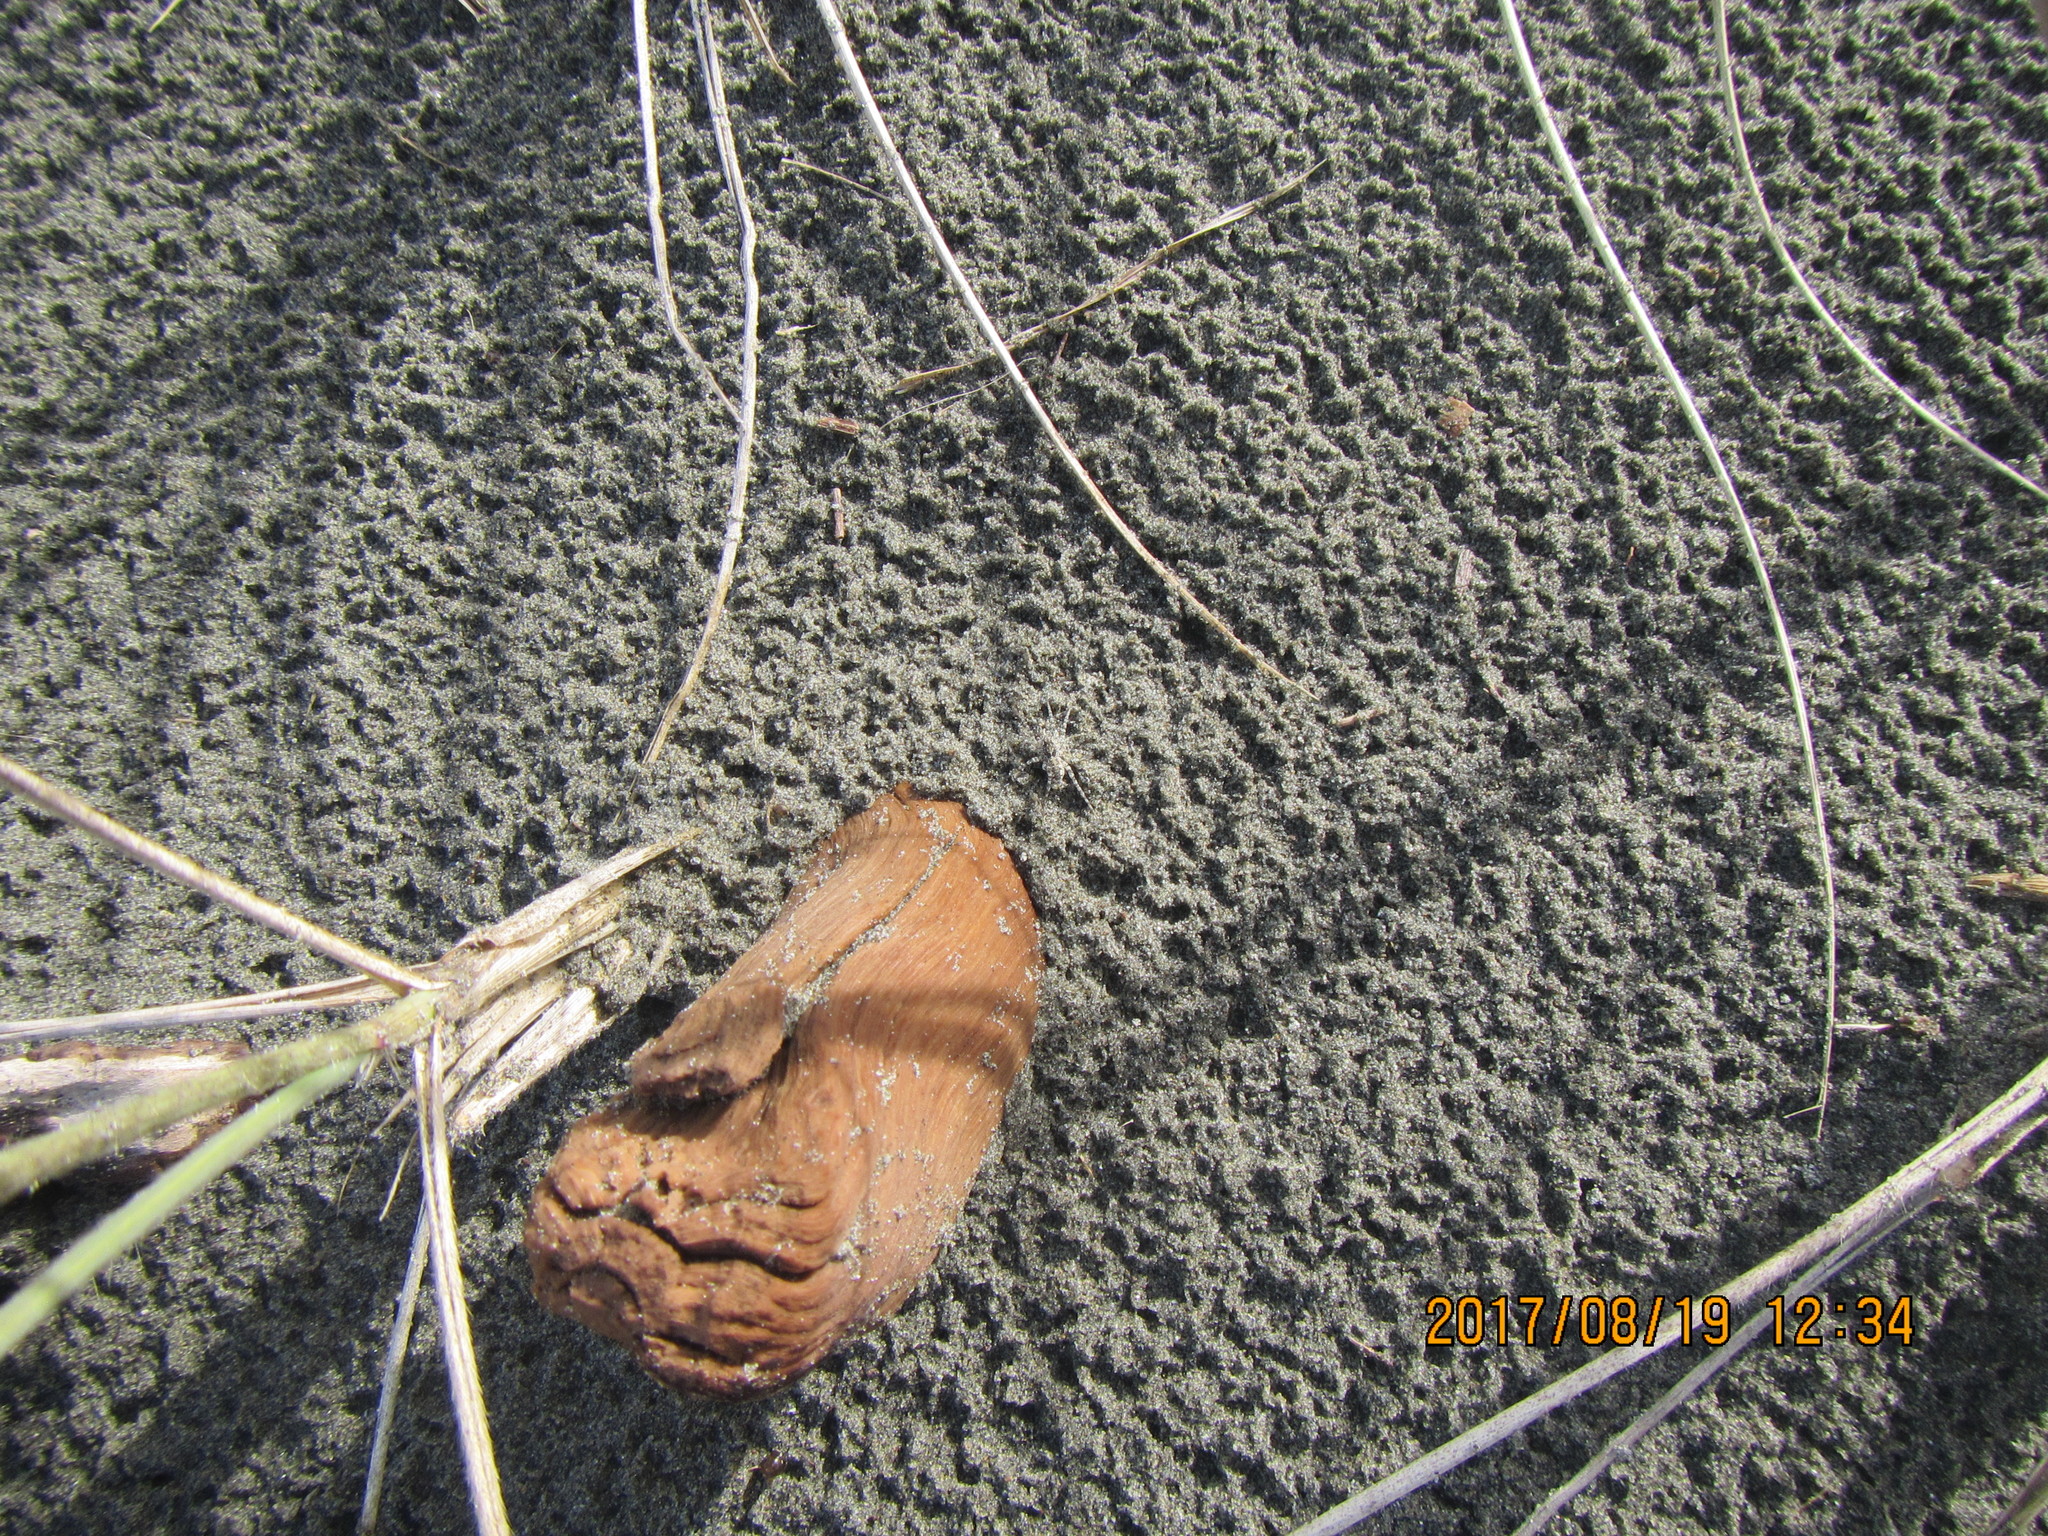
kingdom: Animalia
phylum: Arthropoda
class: Arachnida
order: Araneae
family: Lycosidae
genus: Anoteropsis
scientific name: Anoteropsis litoralis
